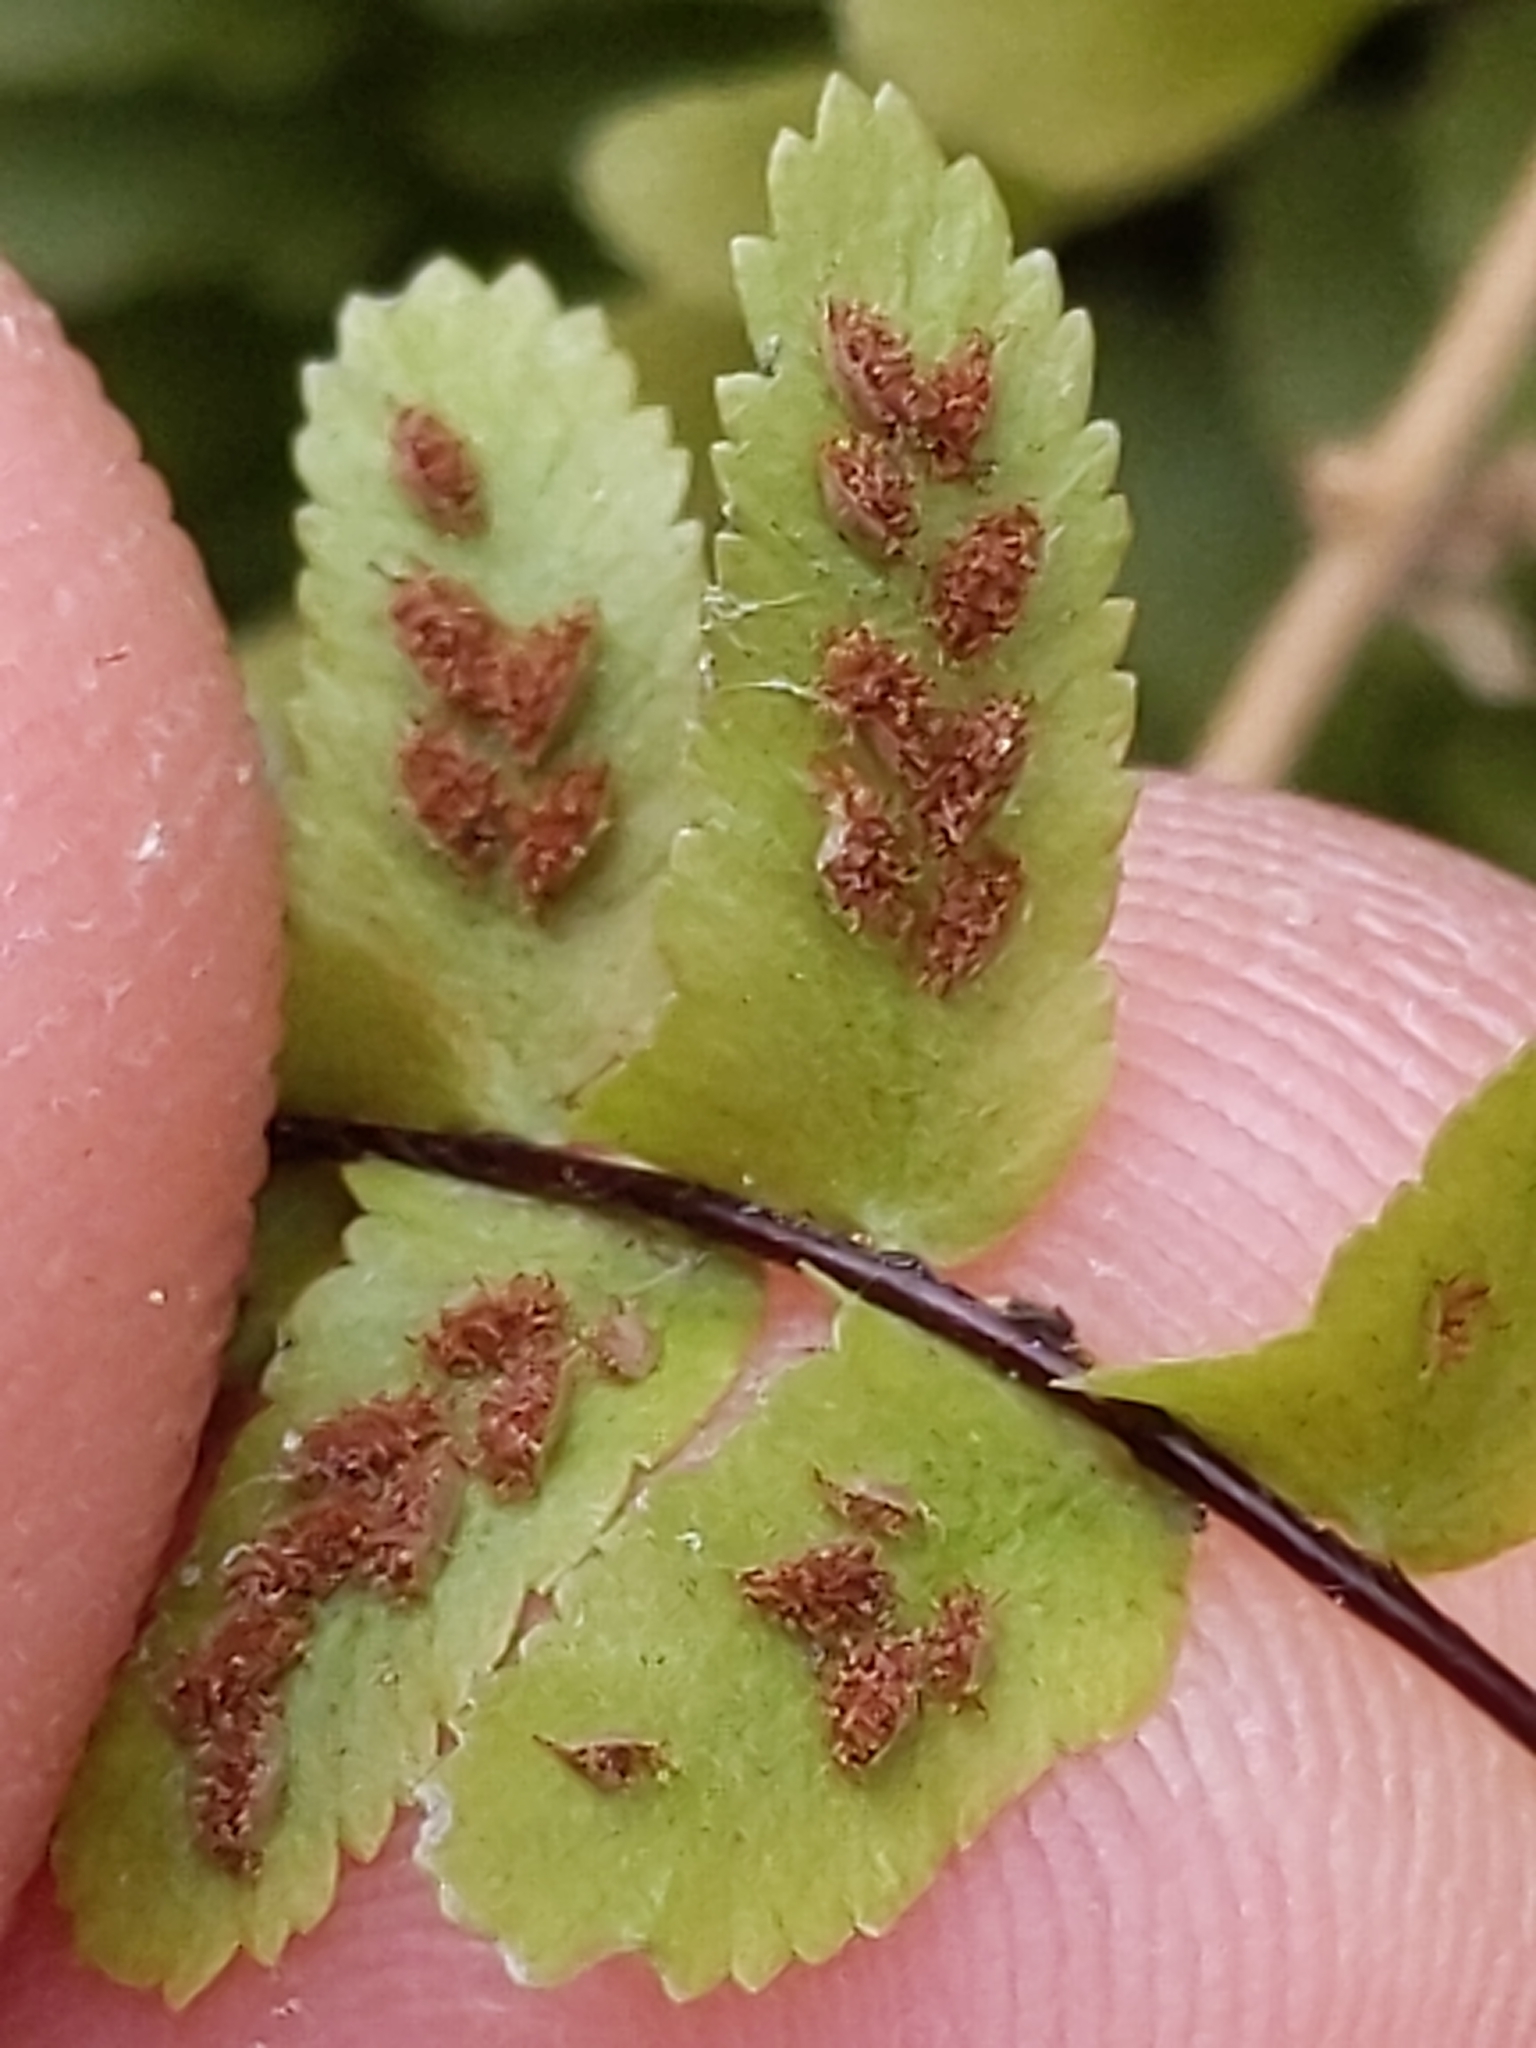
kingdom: Plantae
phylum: Tracheophyta
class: Polypodiopsida
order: Polypodiales
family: Aspleniaceae
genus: Asplenium
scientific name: Asplenium platyneuron
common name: Ebony spleenwort
